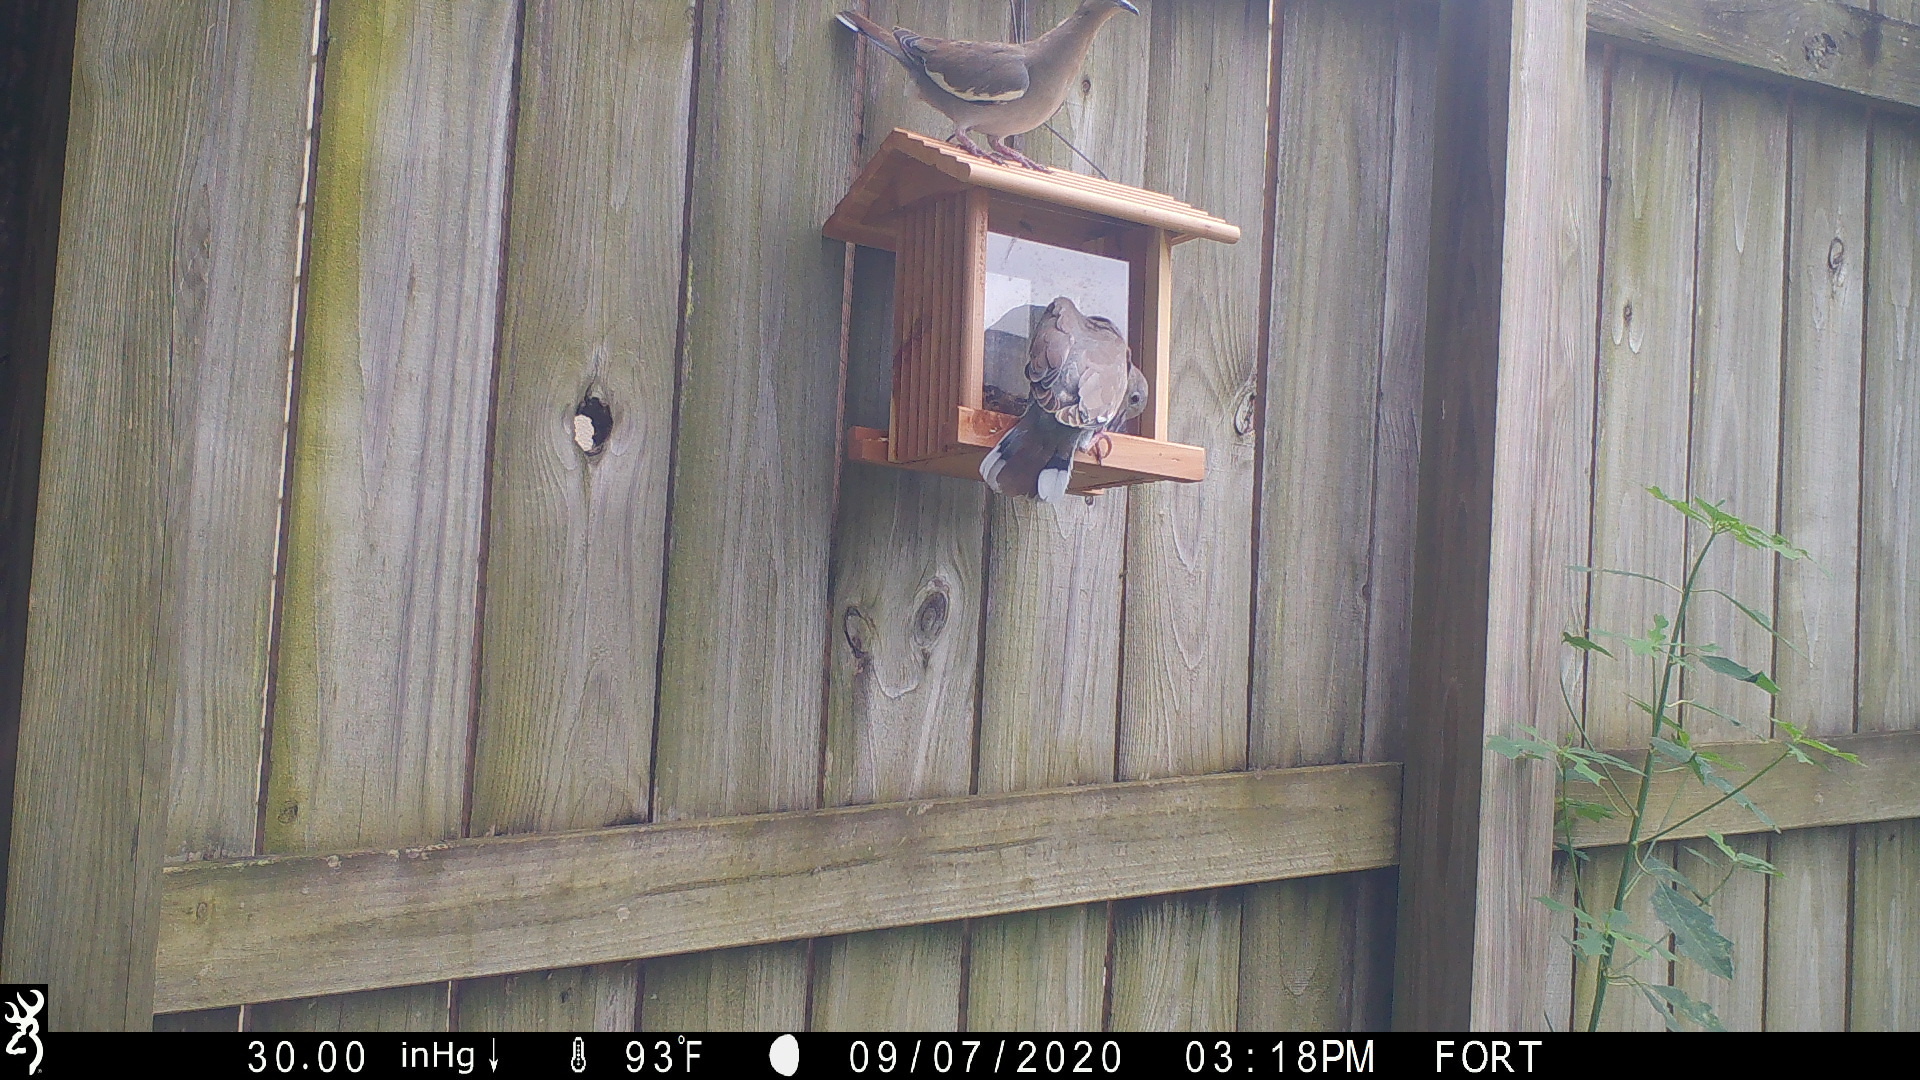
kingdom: Animalia
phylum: Chordata
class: Aves
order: Columbiformes
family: Columbidae
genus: Zenaida
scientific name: Zenaida asiatica
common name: White-winged dove
